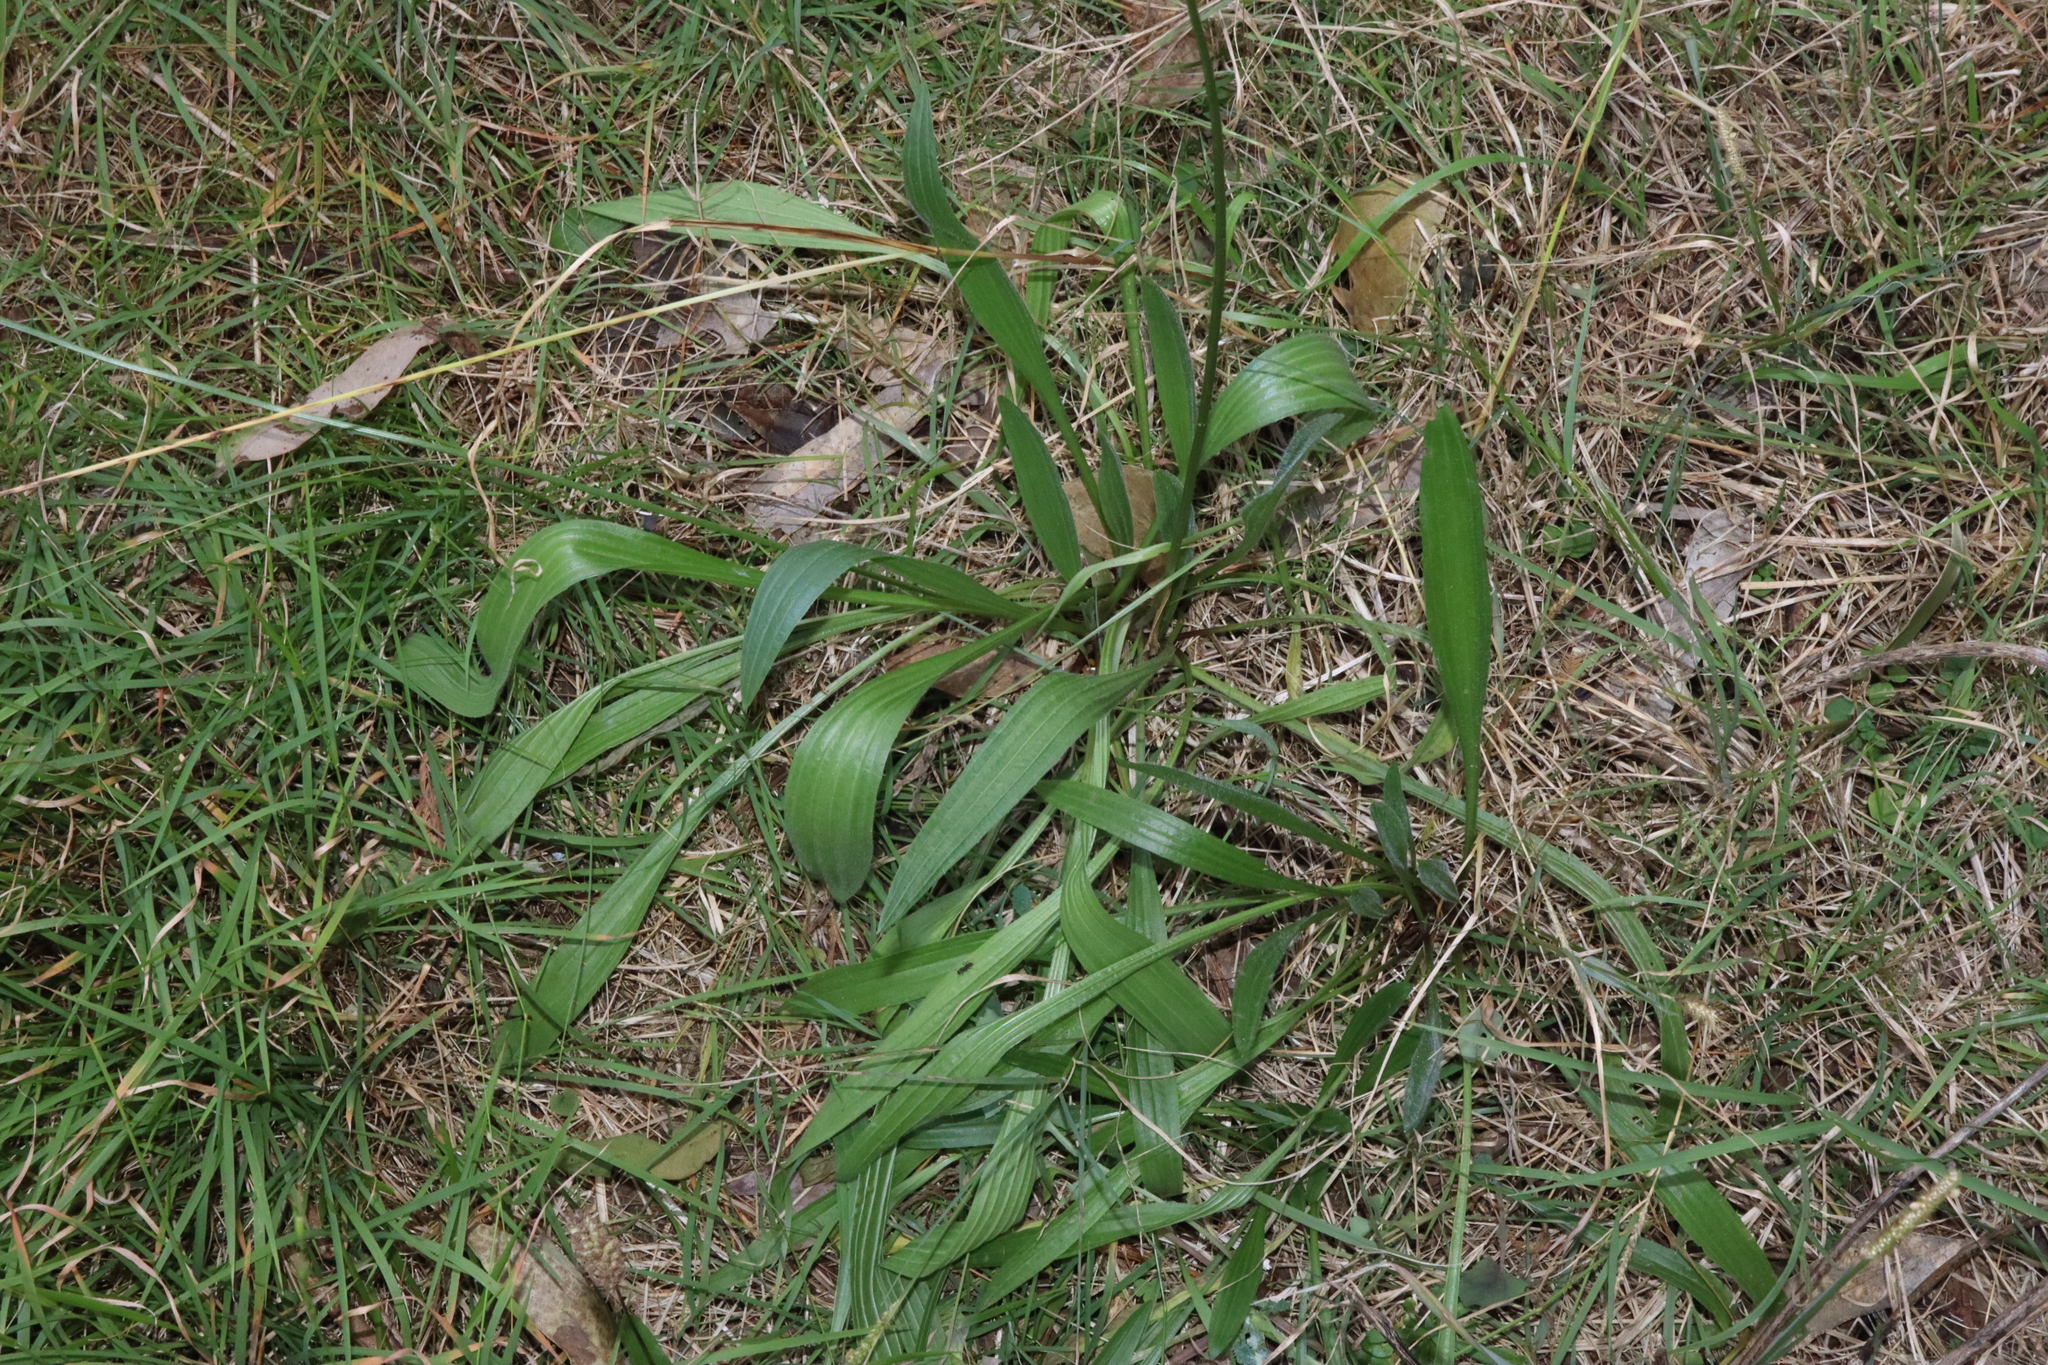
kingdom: Plantae
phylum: Tracheophyta
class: Magnoliopsida
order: Lamiales
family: Plantaginaceae
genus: Plantago
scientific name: Plantago lanceolata
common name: Ribwort plantain
